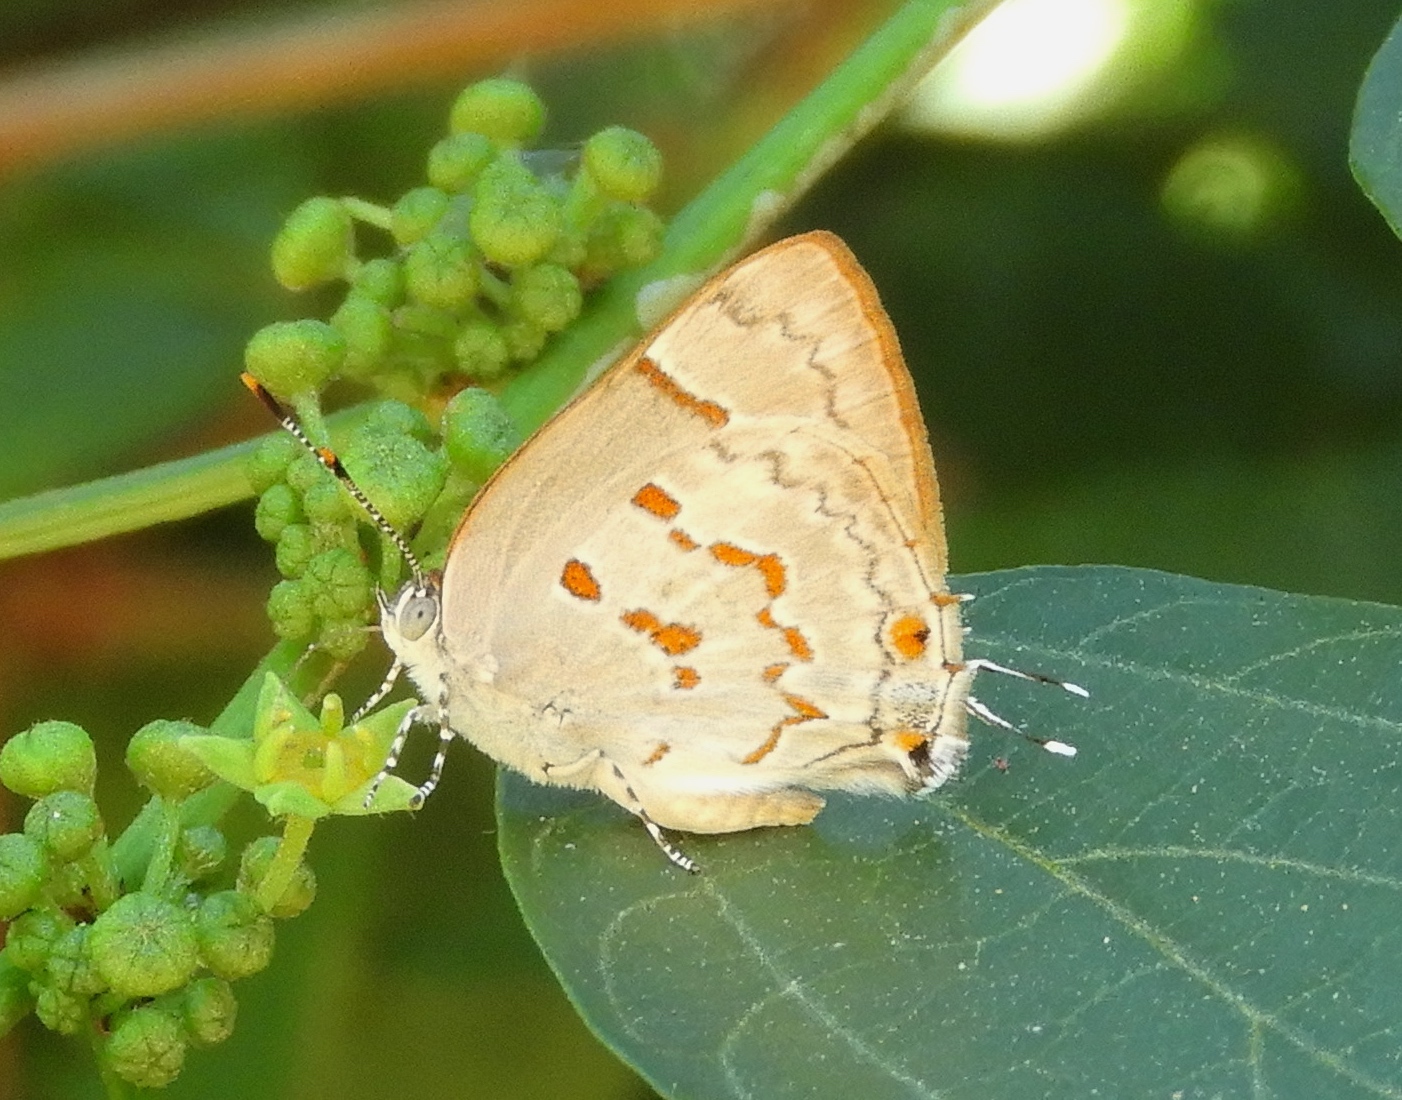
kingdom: Animalia
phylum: Arthropoda
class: Insecta
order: Lepidoptera
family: Lycaenidae
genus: Tmolus
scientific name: Tmolus echion
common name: Red-spotted hairstreak
